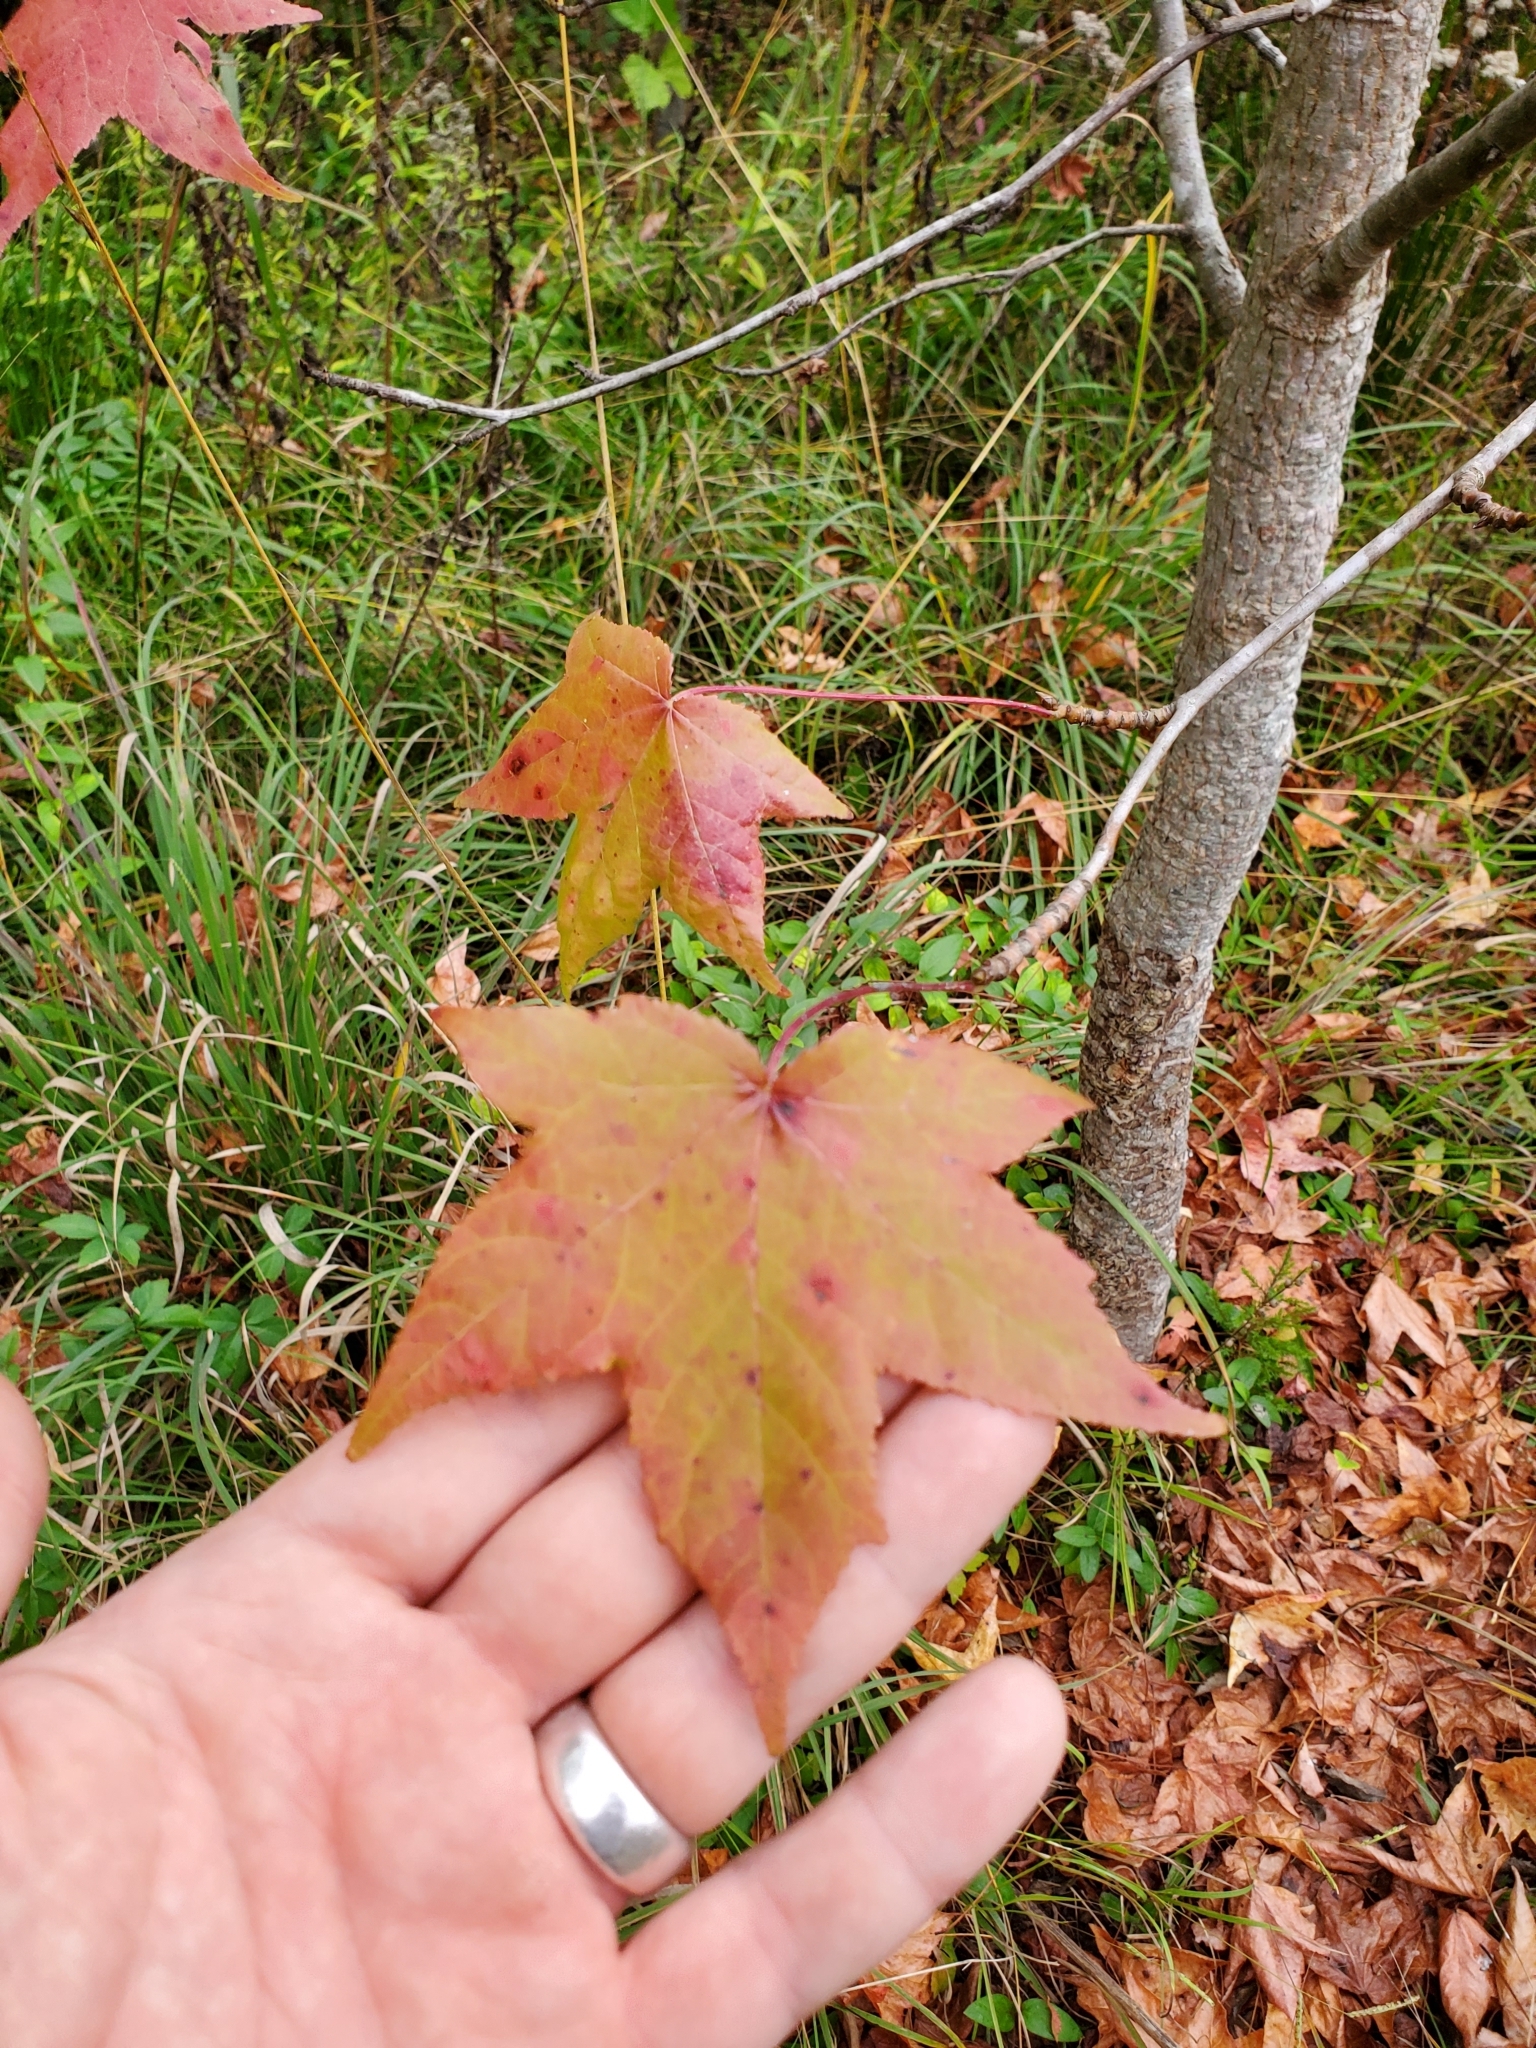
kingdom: Plantae
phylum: Tracheophyta
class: Magnoliopsida
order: Saxifragales
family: Altingiaceae
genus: Liquidambar
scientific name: Liquidambar styraciflua
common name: Sweet gum
